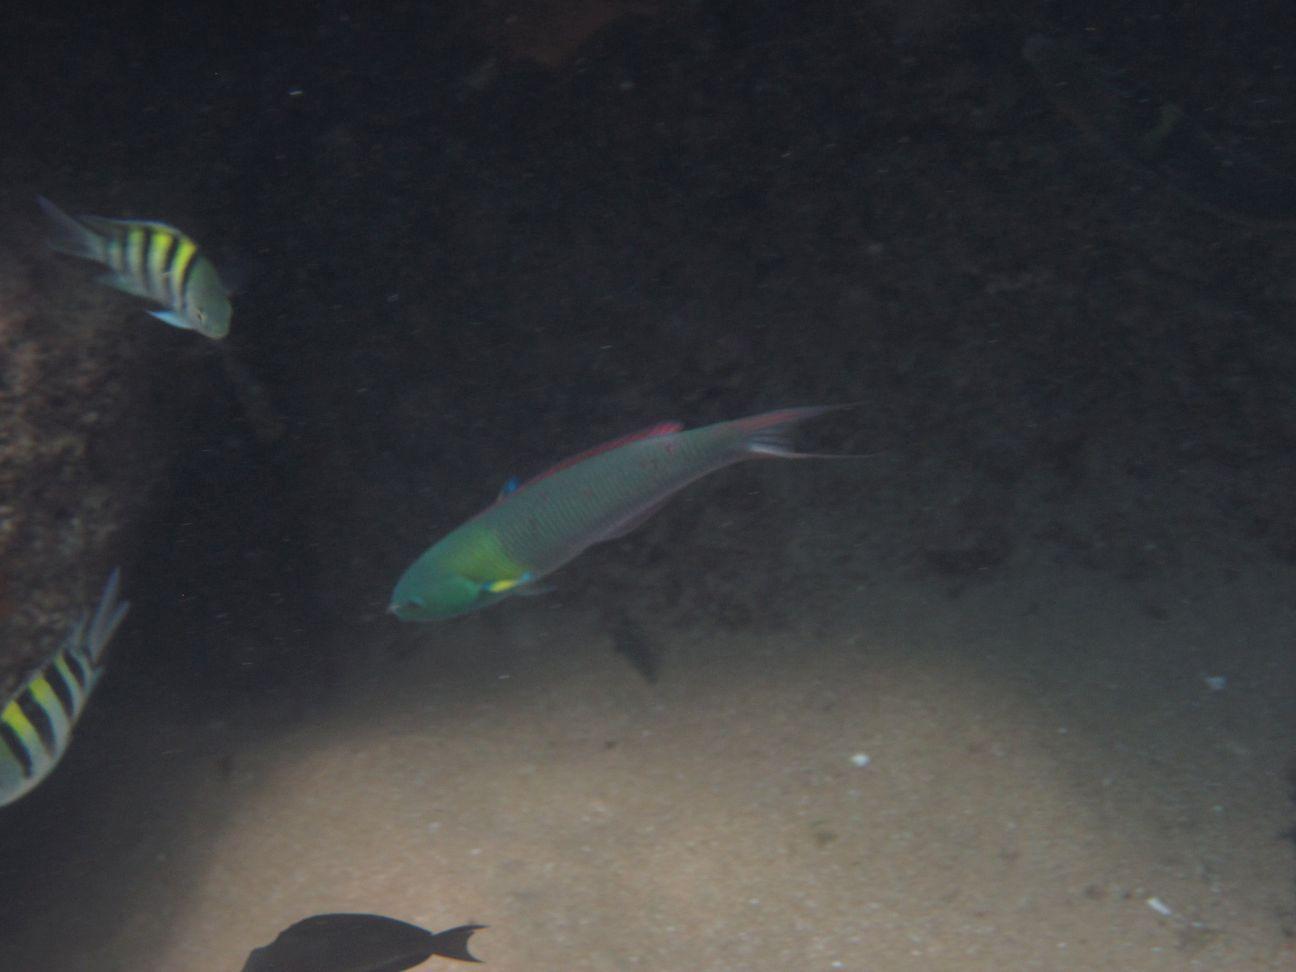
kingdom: Animalia
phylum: Chordata
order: Perciformes
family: Labridae
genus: Thalassoma
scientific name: Thalassoma amblycephalum
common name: Bluehead wrasse
